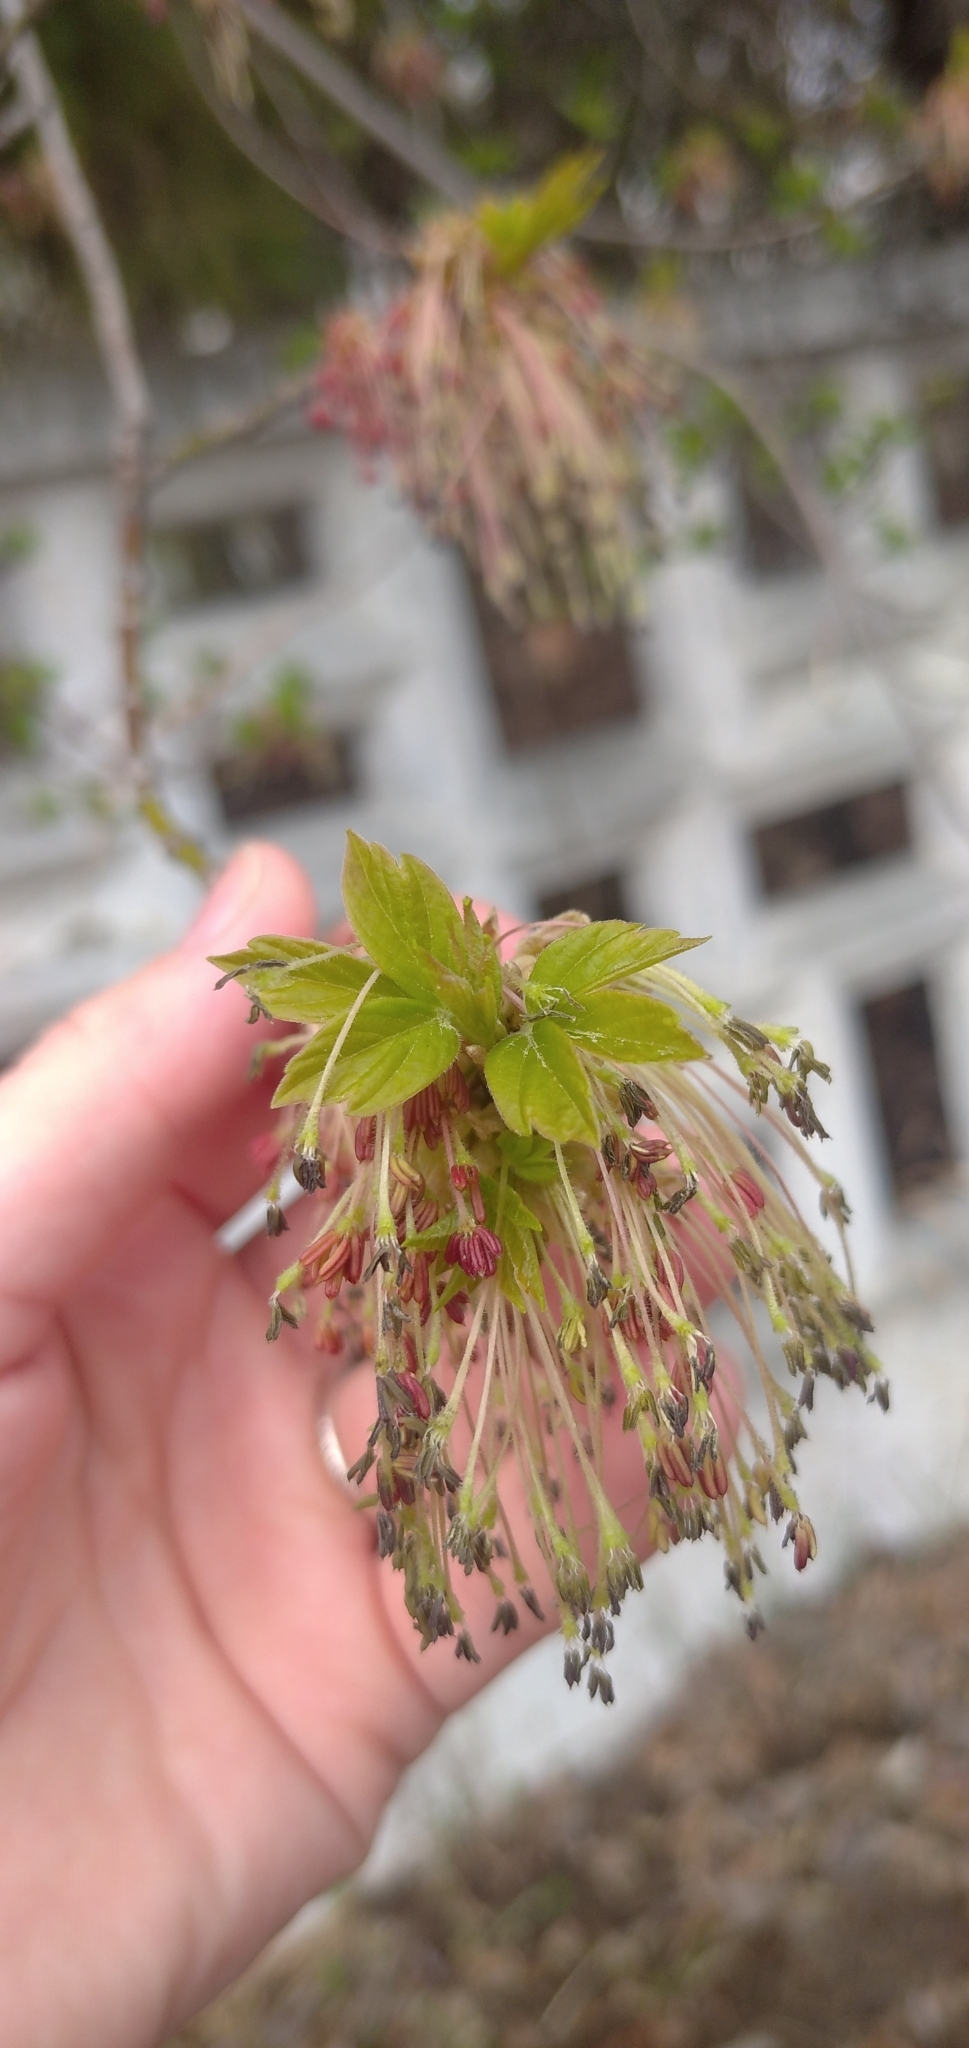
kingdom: Plantae
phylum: Tracheophyta
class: Magnoliopsida
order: Sapindales
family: Sapindaceae
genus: Acer
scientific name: Acer negundo
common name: Ashleaf maple
